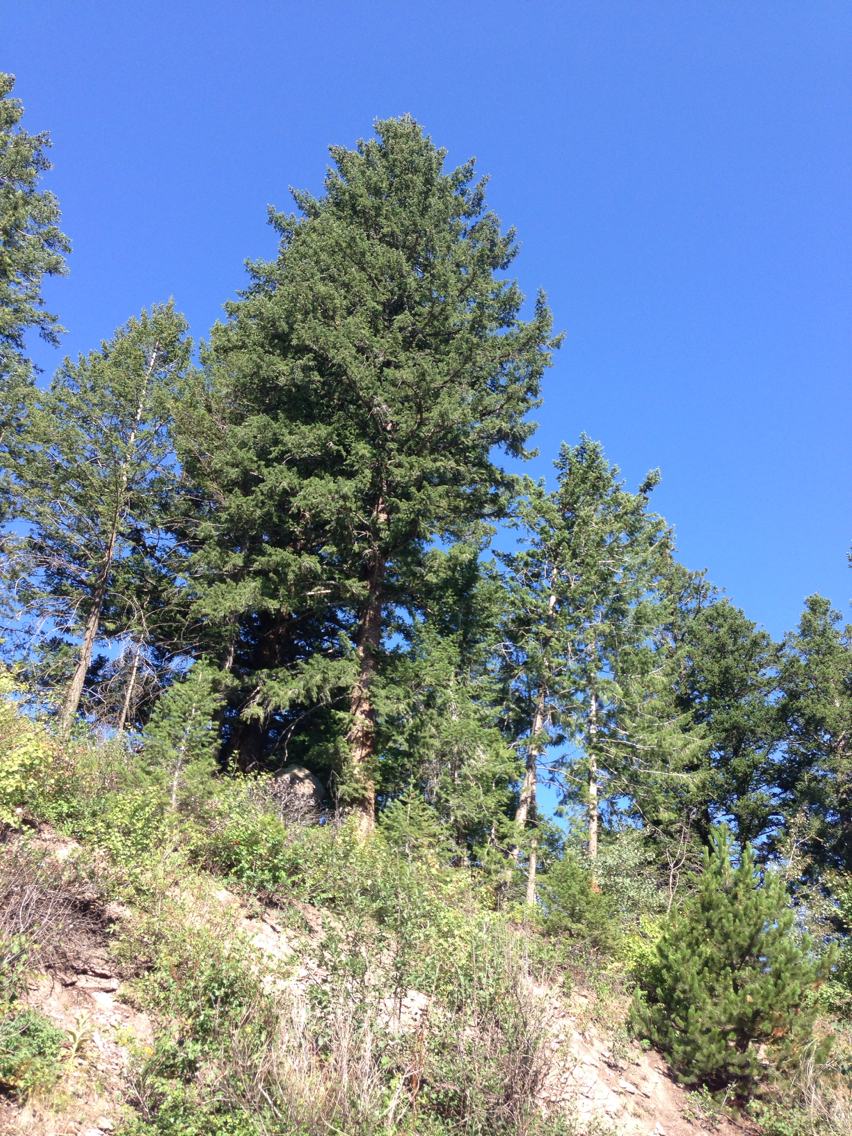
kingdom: Plantae
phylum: Tracheophyta
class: Pinopsida
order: Pinales
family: Pinaceae
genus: Pseudotsuga
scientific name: Pseudotsuga menziesii
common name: Douglas fir
